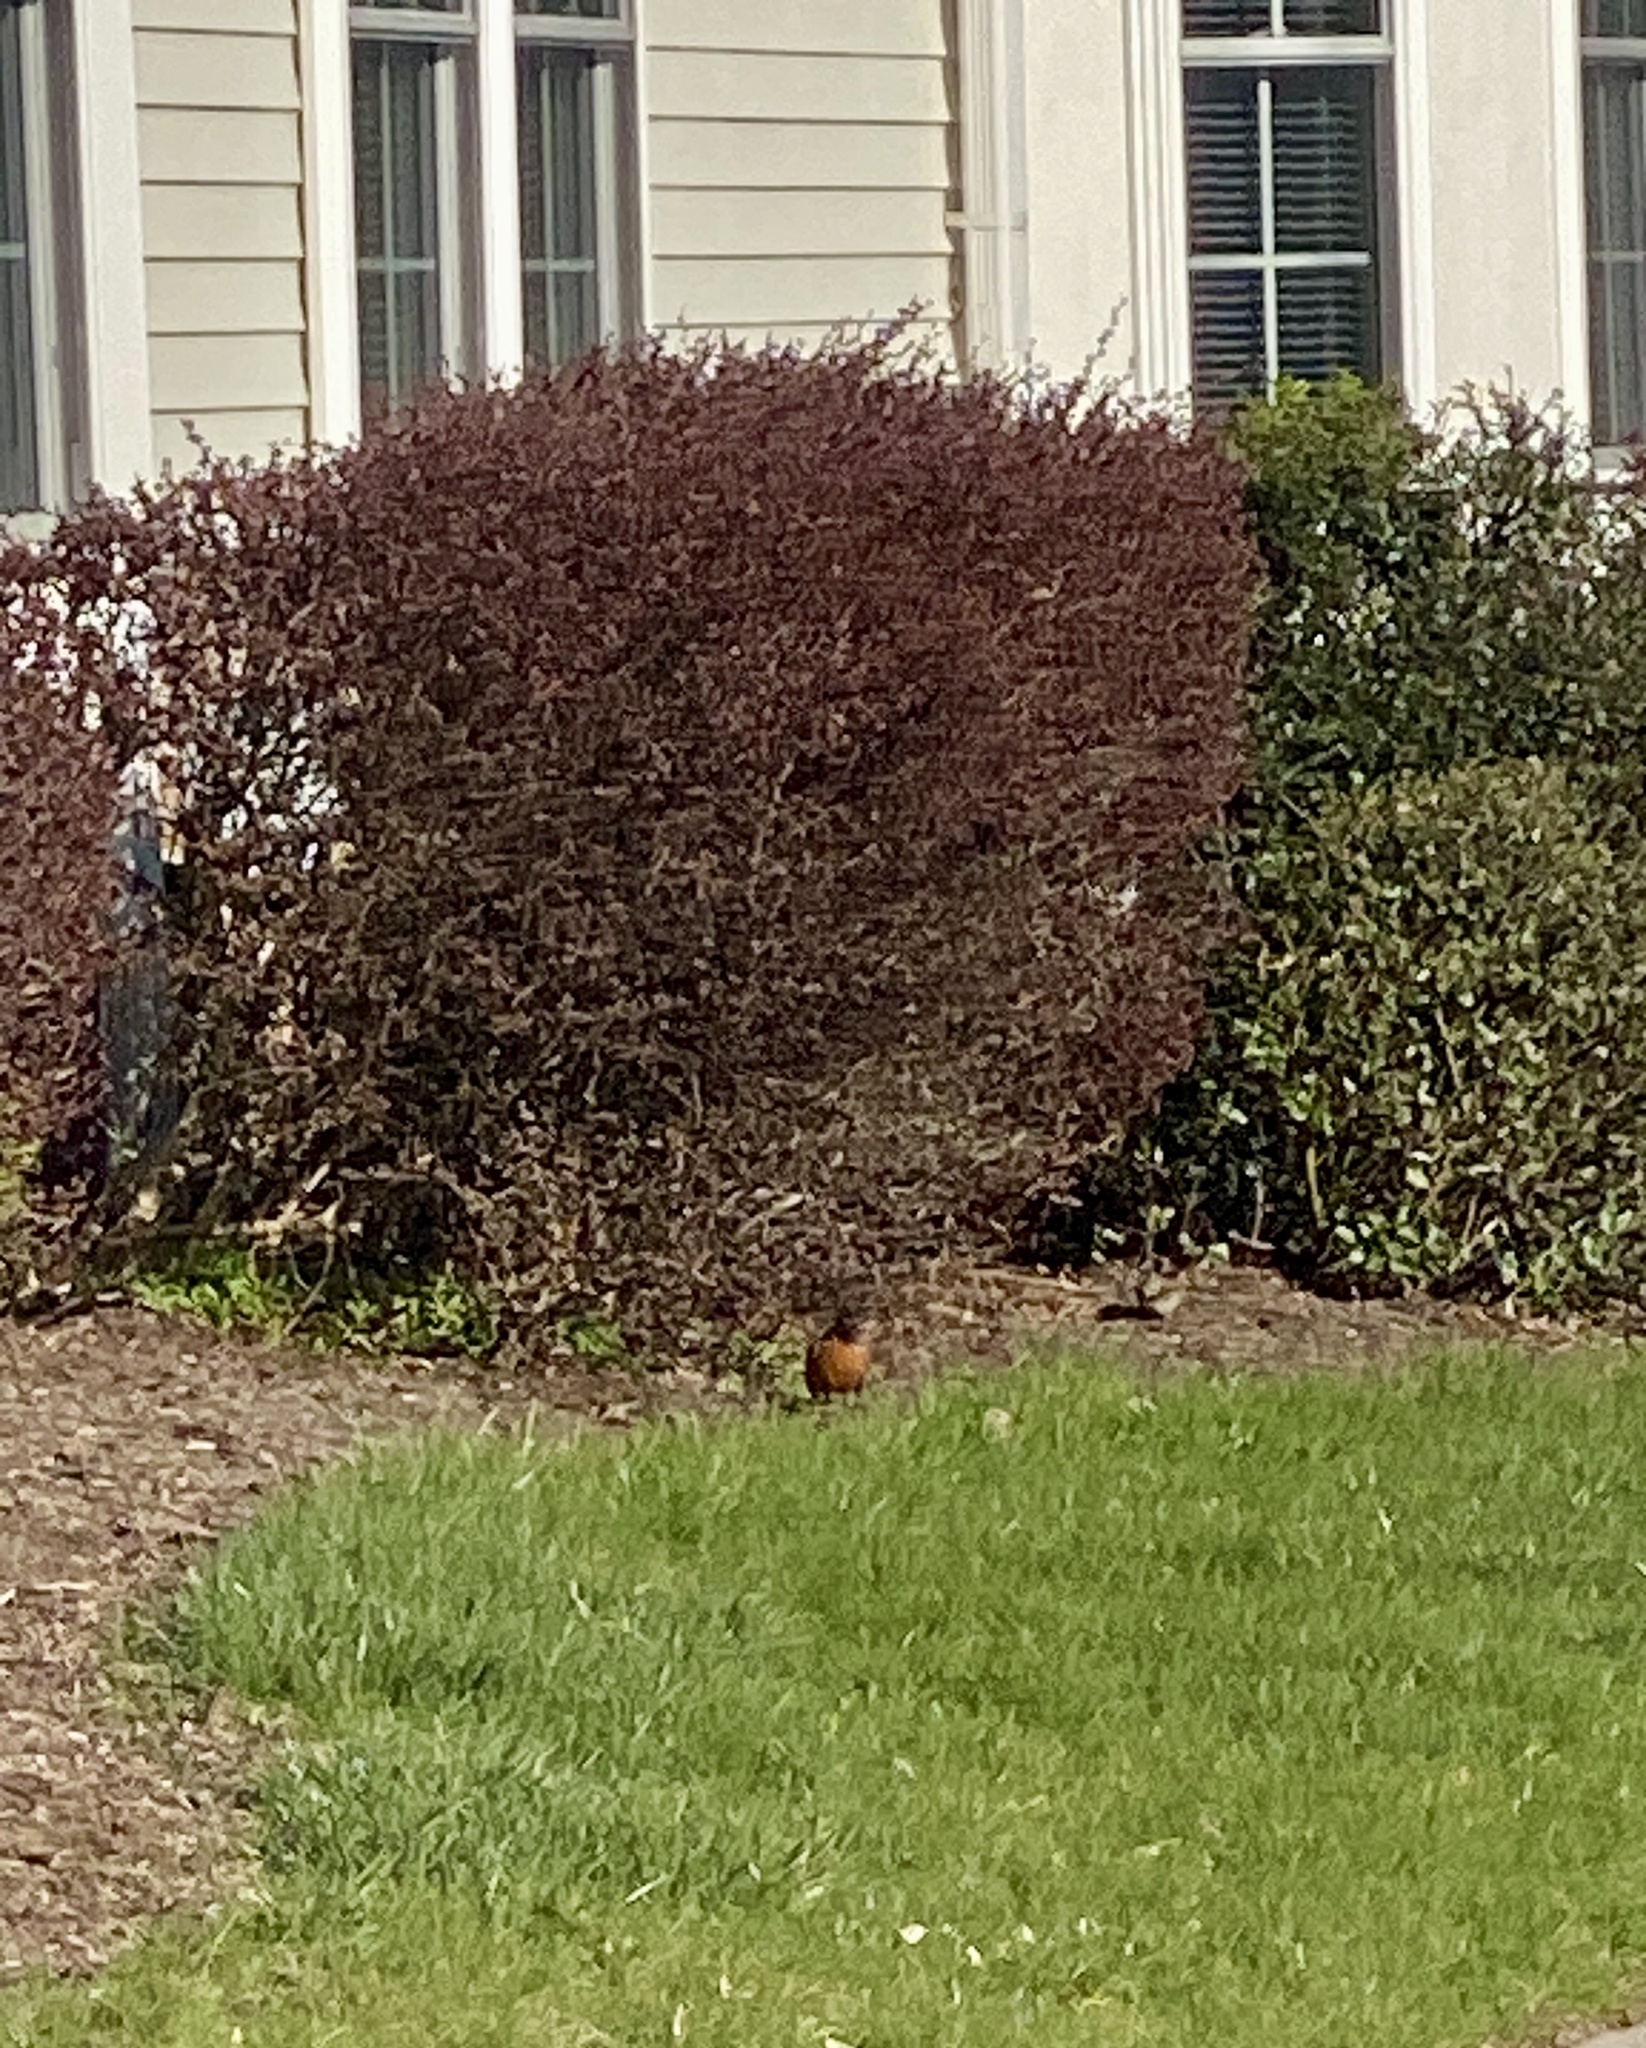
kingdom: Animalia
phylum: Chordata
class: Aves
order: Passeriformes
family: Turdidae
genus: Turdus
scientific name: Turdus migratorius
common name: American robin
